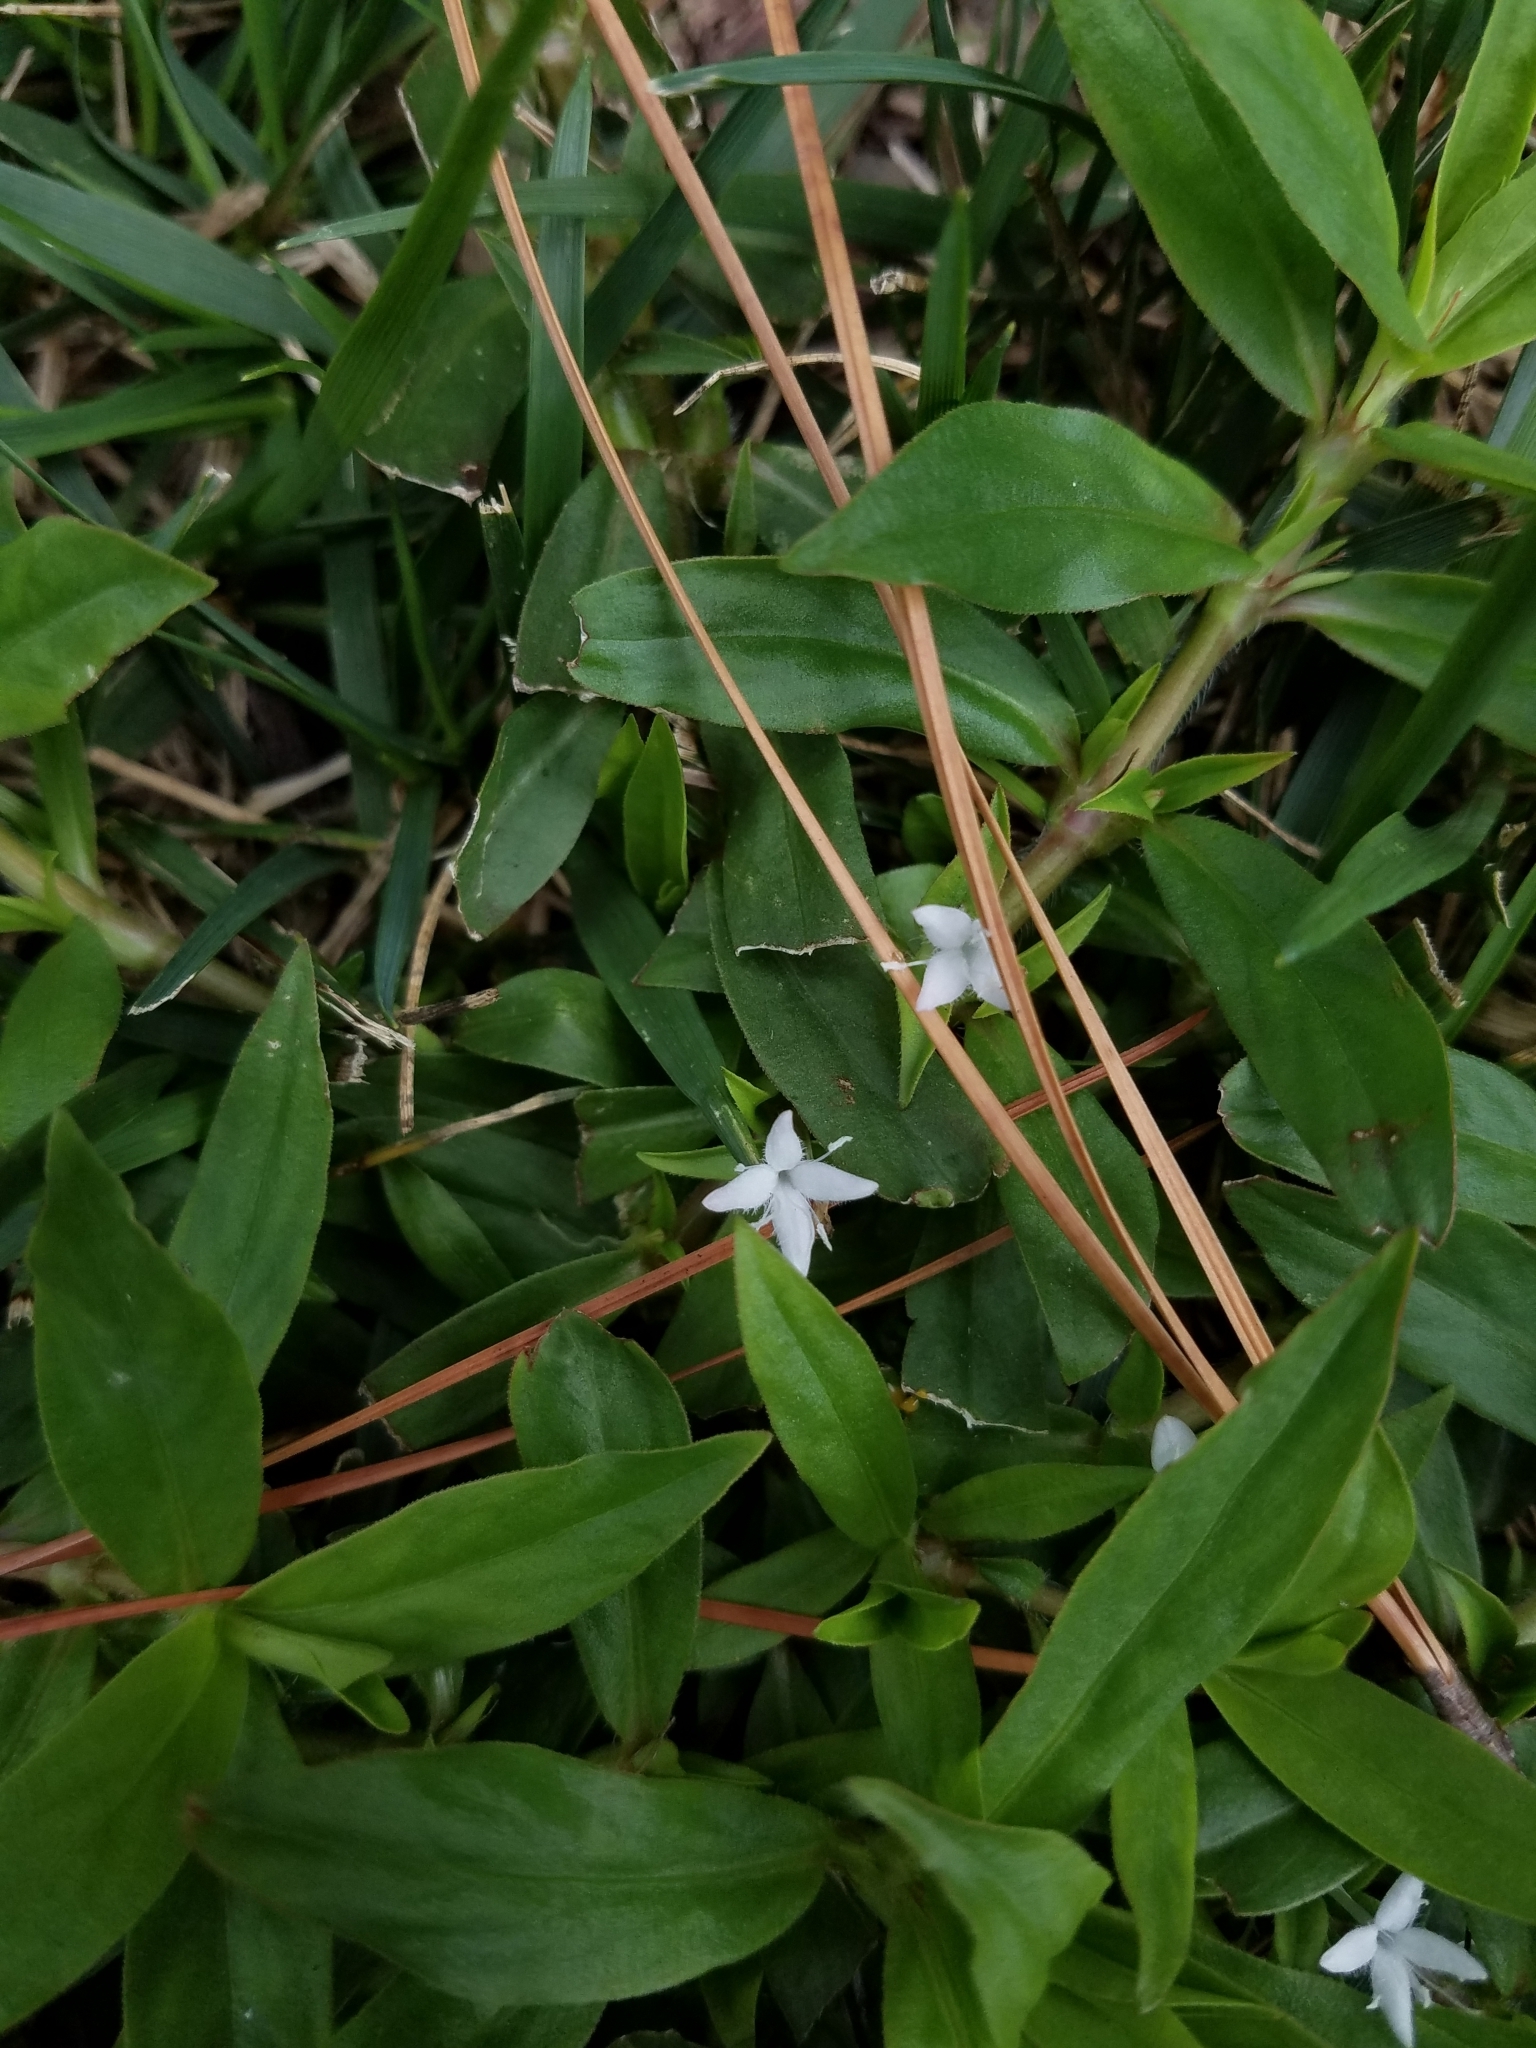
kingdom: Plantae
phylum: Tracheophyta
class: Magnoliopsida
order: Gentianales
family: Rubiaceae
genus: Diodia
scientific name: Diodia virginiana
